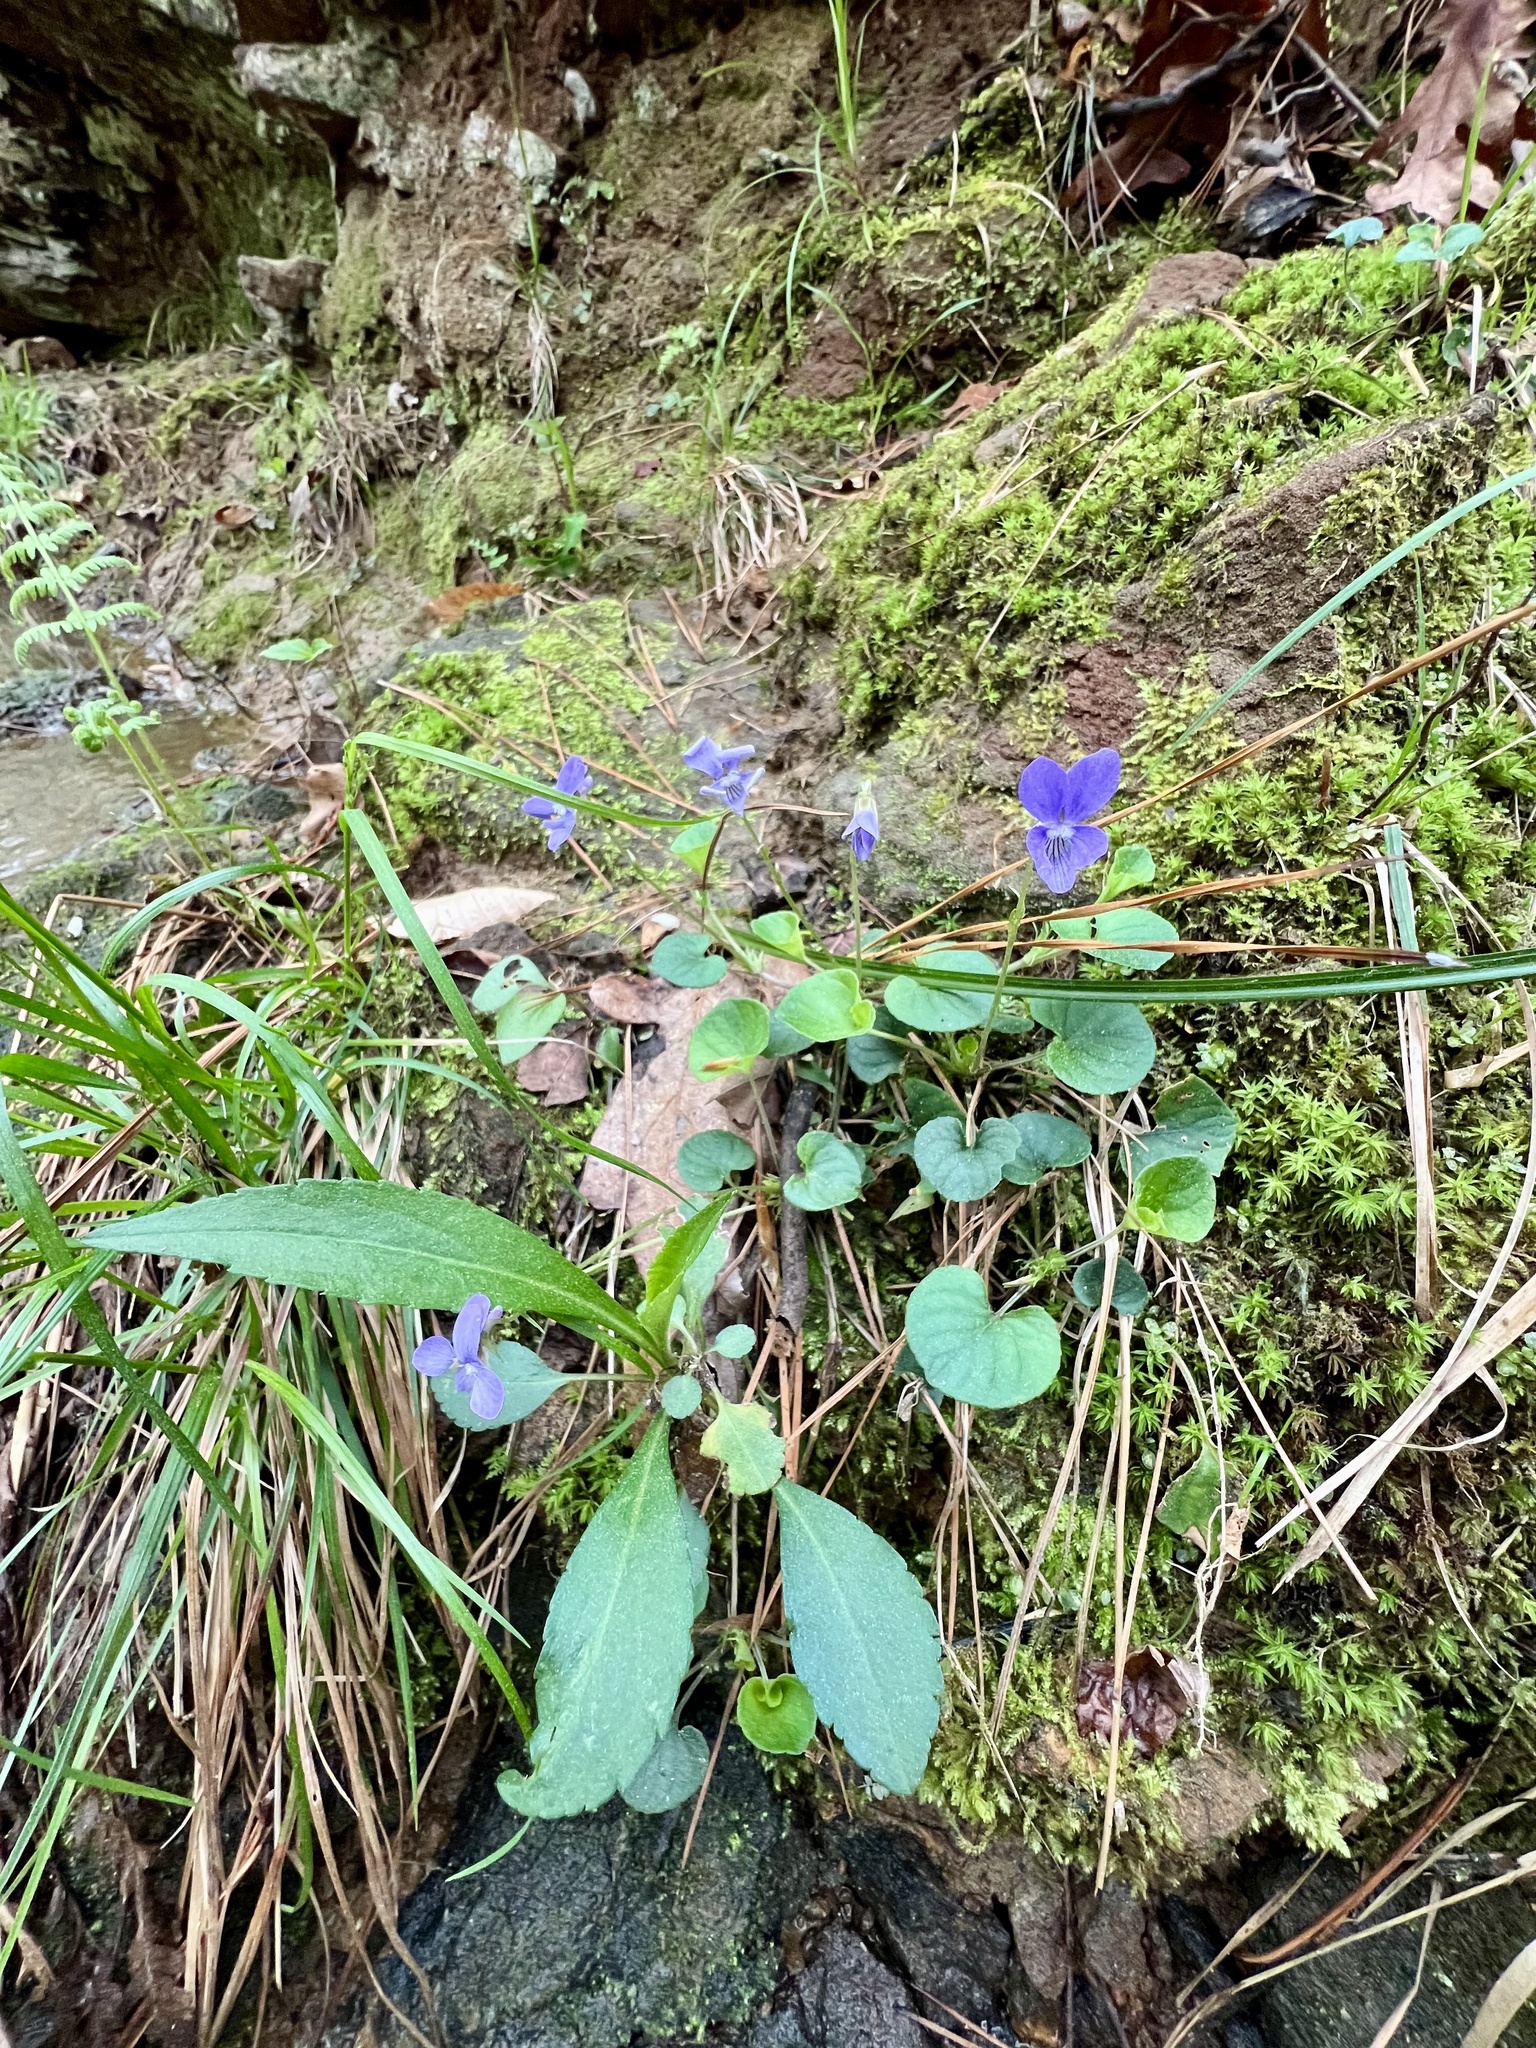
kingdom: Plantae
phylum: Tracheophyta
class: Magnoliopsida
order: Malpighiales
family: Violaceae
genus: Viola
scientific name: Viola walteri
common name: Prostrate southern violet
